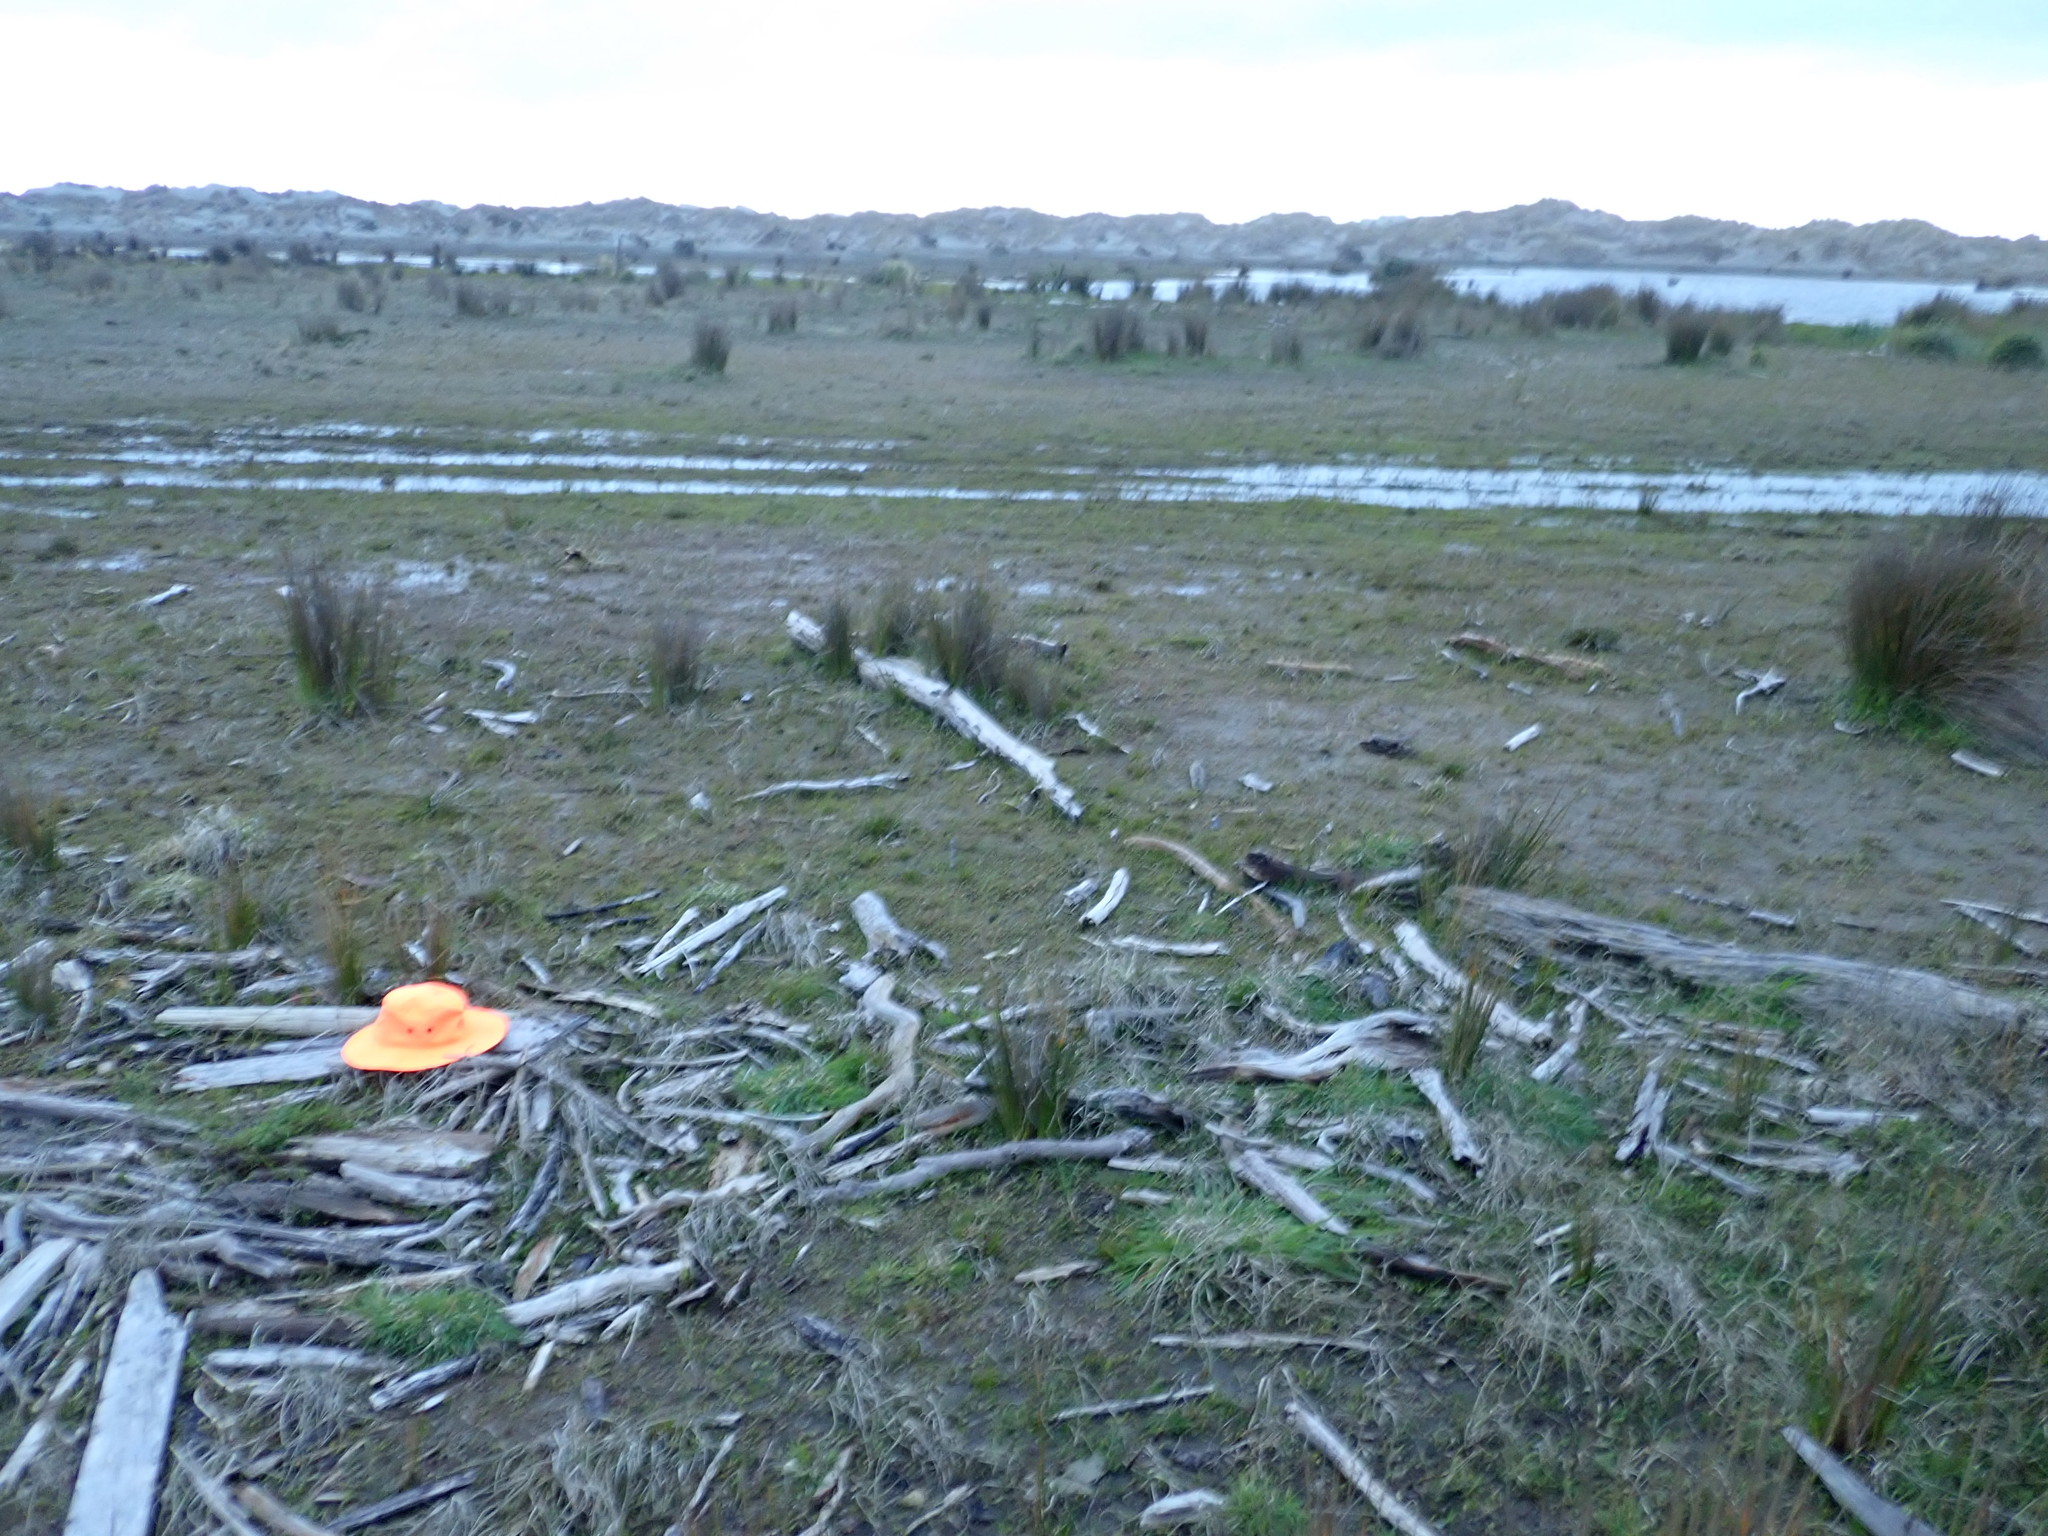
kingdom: Animalia
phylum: Arthropoda
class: Arachnida
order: Araneae
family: Pisauridae
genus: Dolomedes
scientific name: Dolomedes minor
